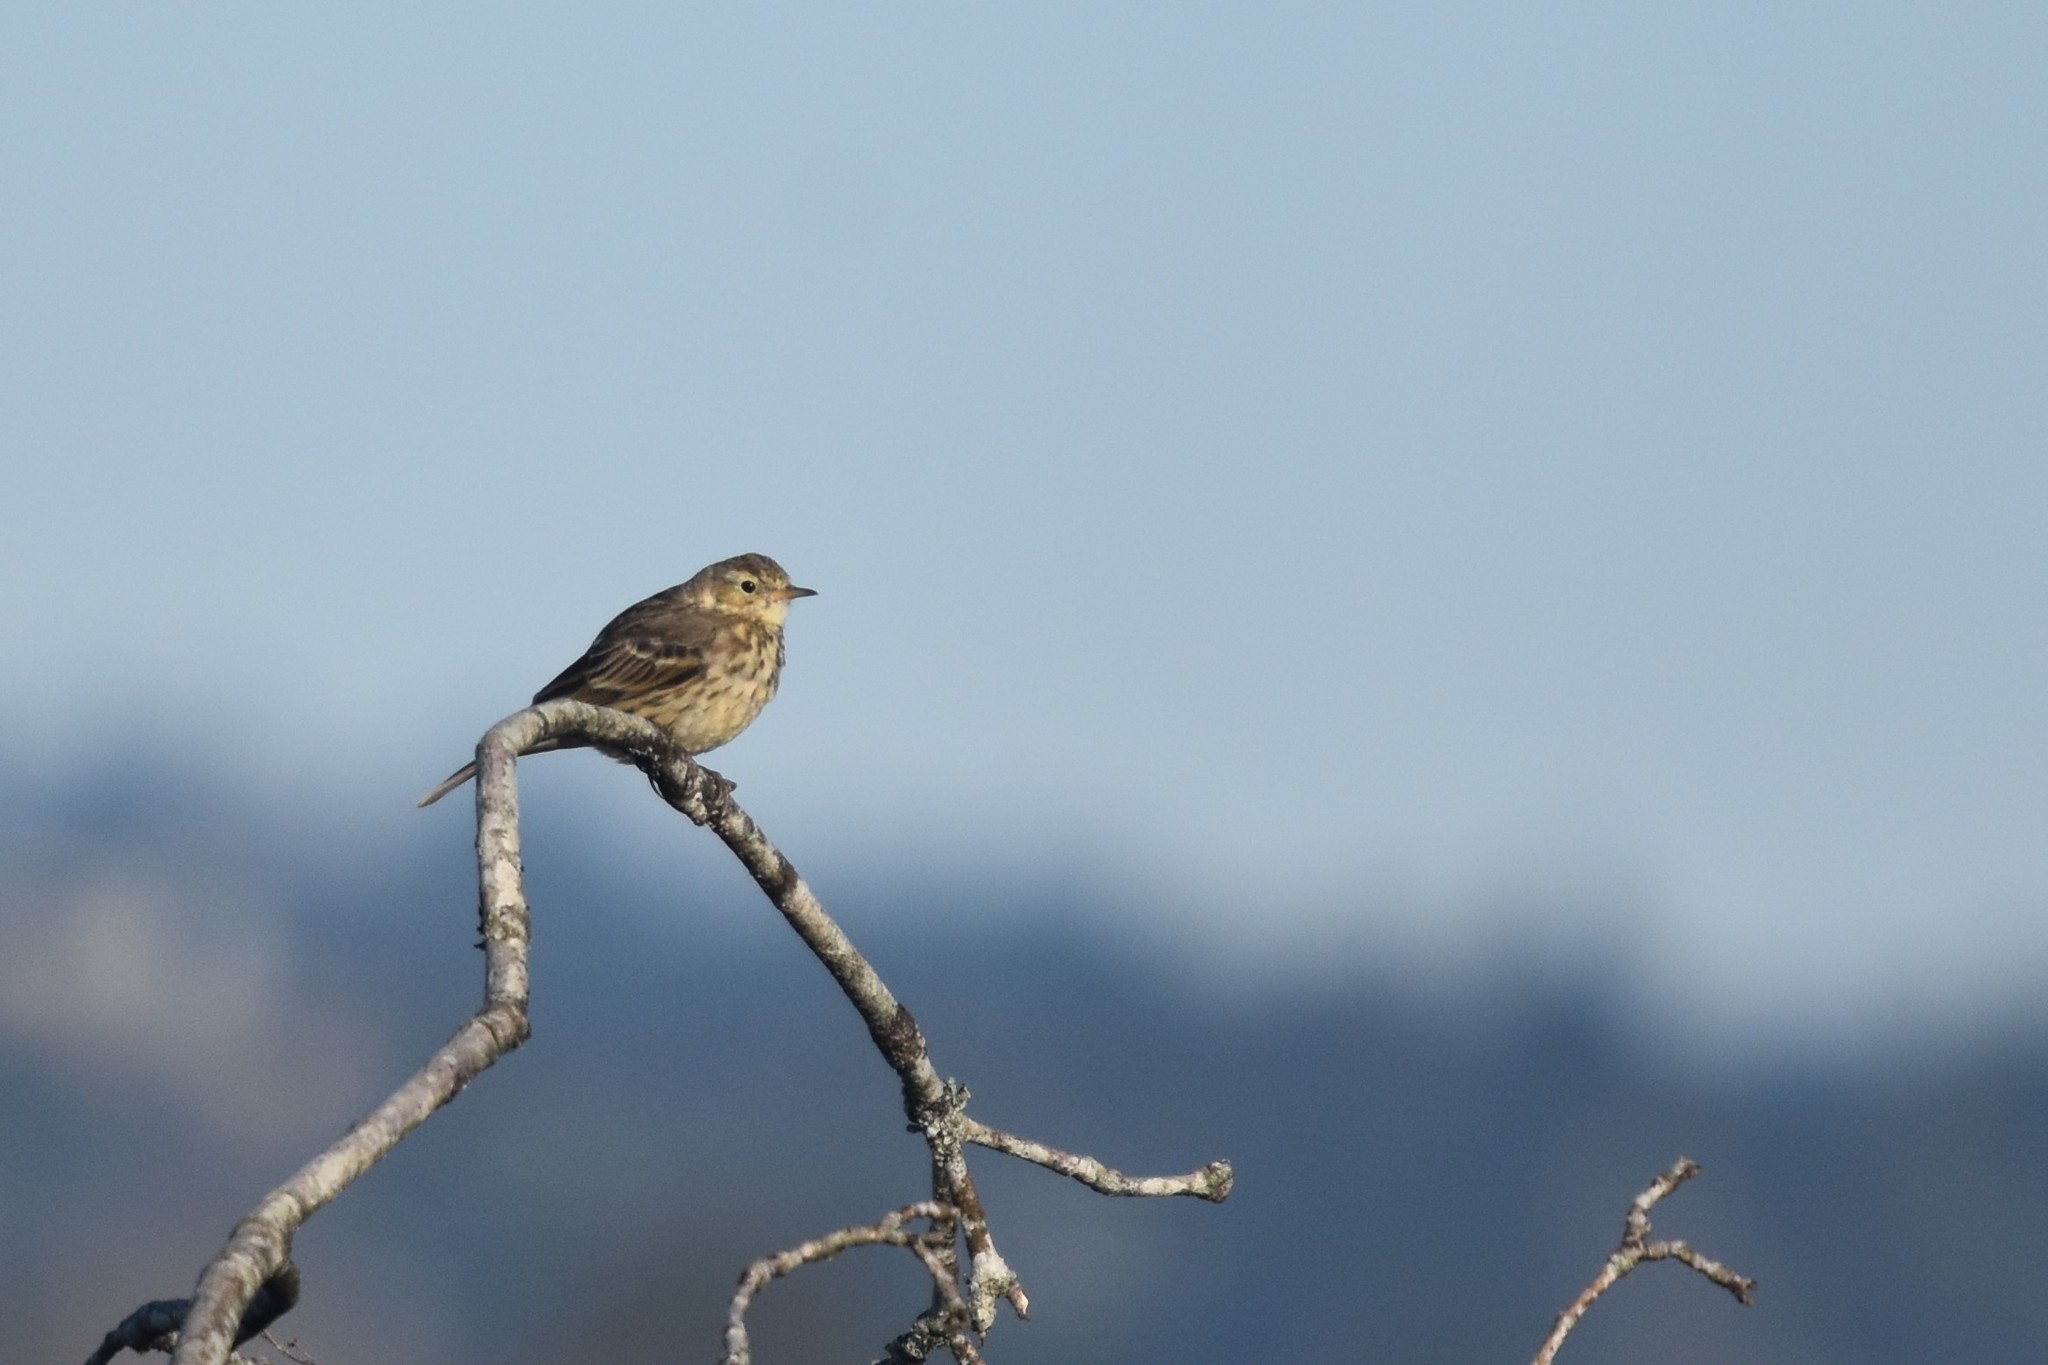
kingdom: Animalia
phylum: Chordata
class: Aves
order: Passeriformes
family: Motacillidae
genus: Anthus
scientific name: Anthus rubescens
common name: Buff-bellied pipit
